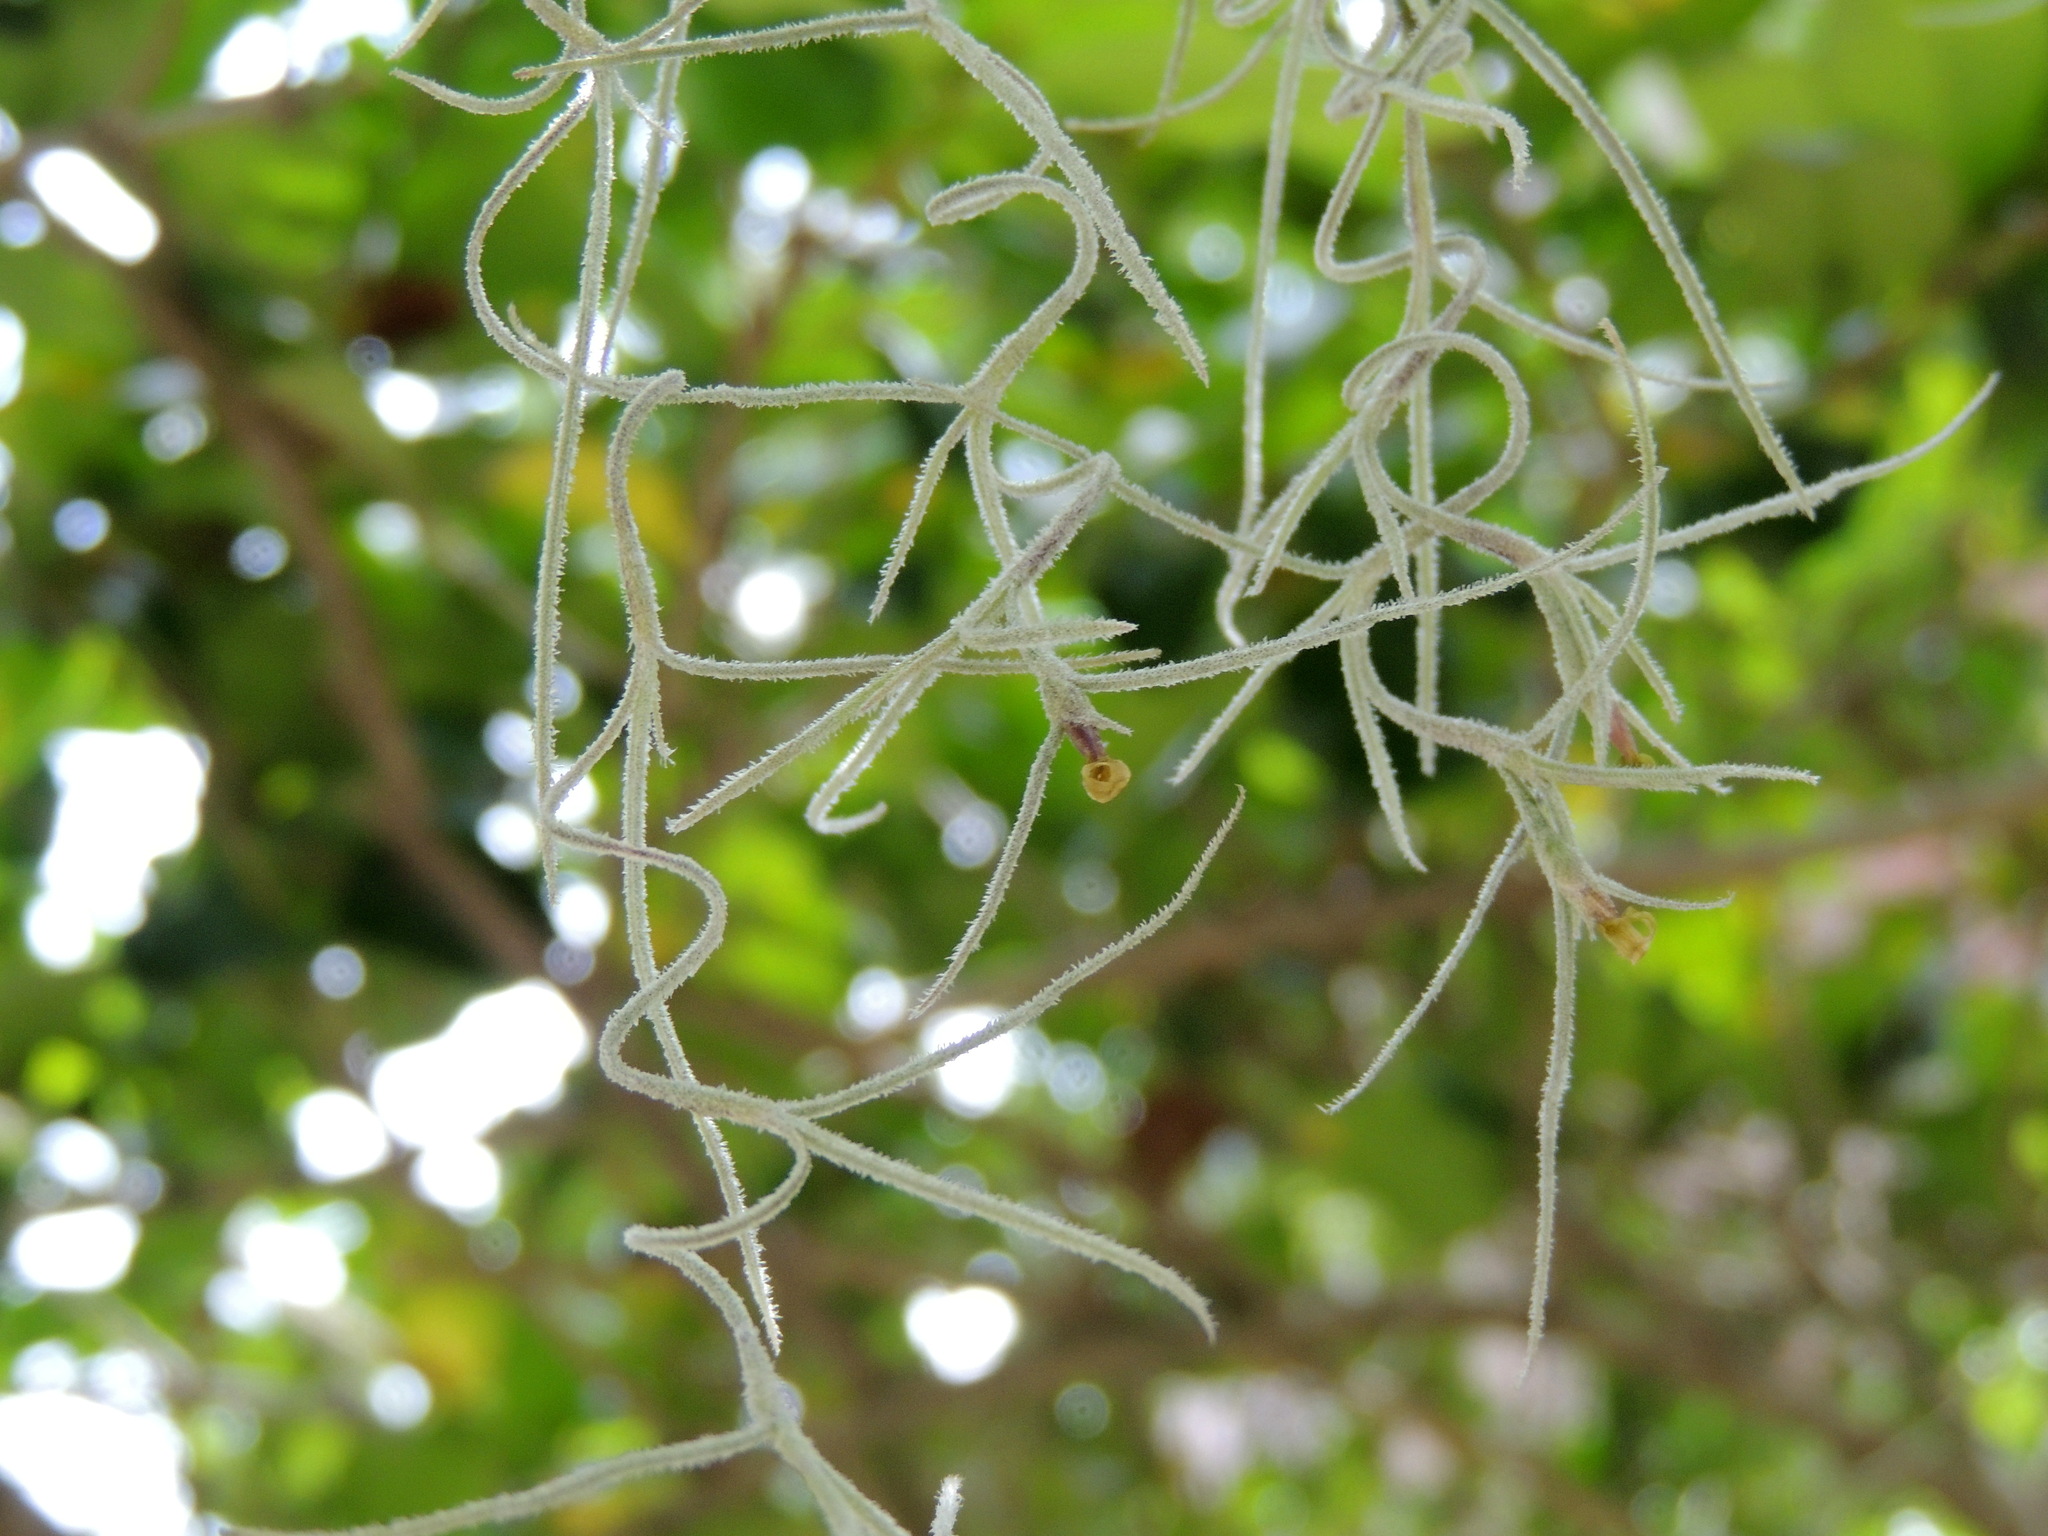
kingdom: Plantae
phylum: Tracheophyta
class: Liliopsida
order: Poales
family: Bromeliaceae
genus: Tillandsia
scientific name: Tillandsia usneoides
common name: Spanish moss
